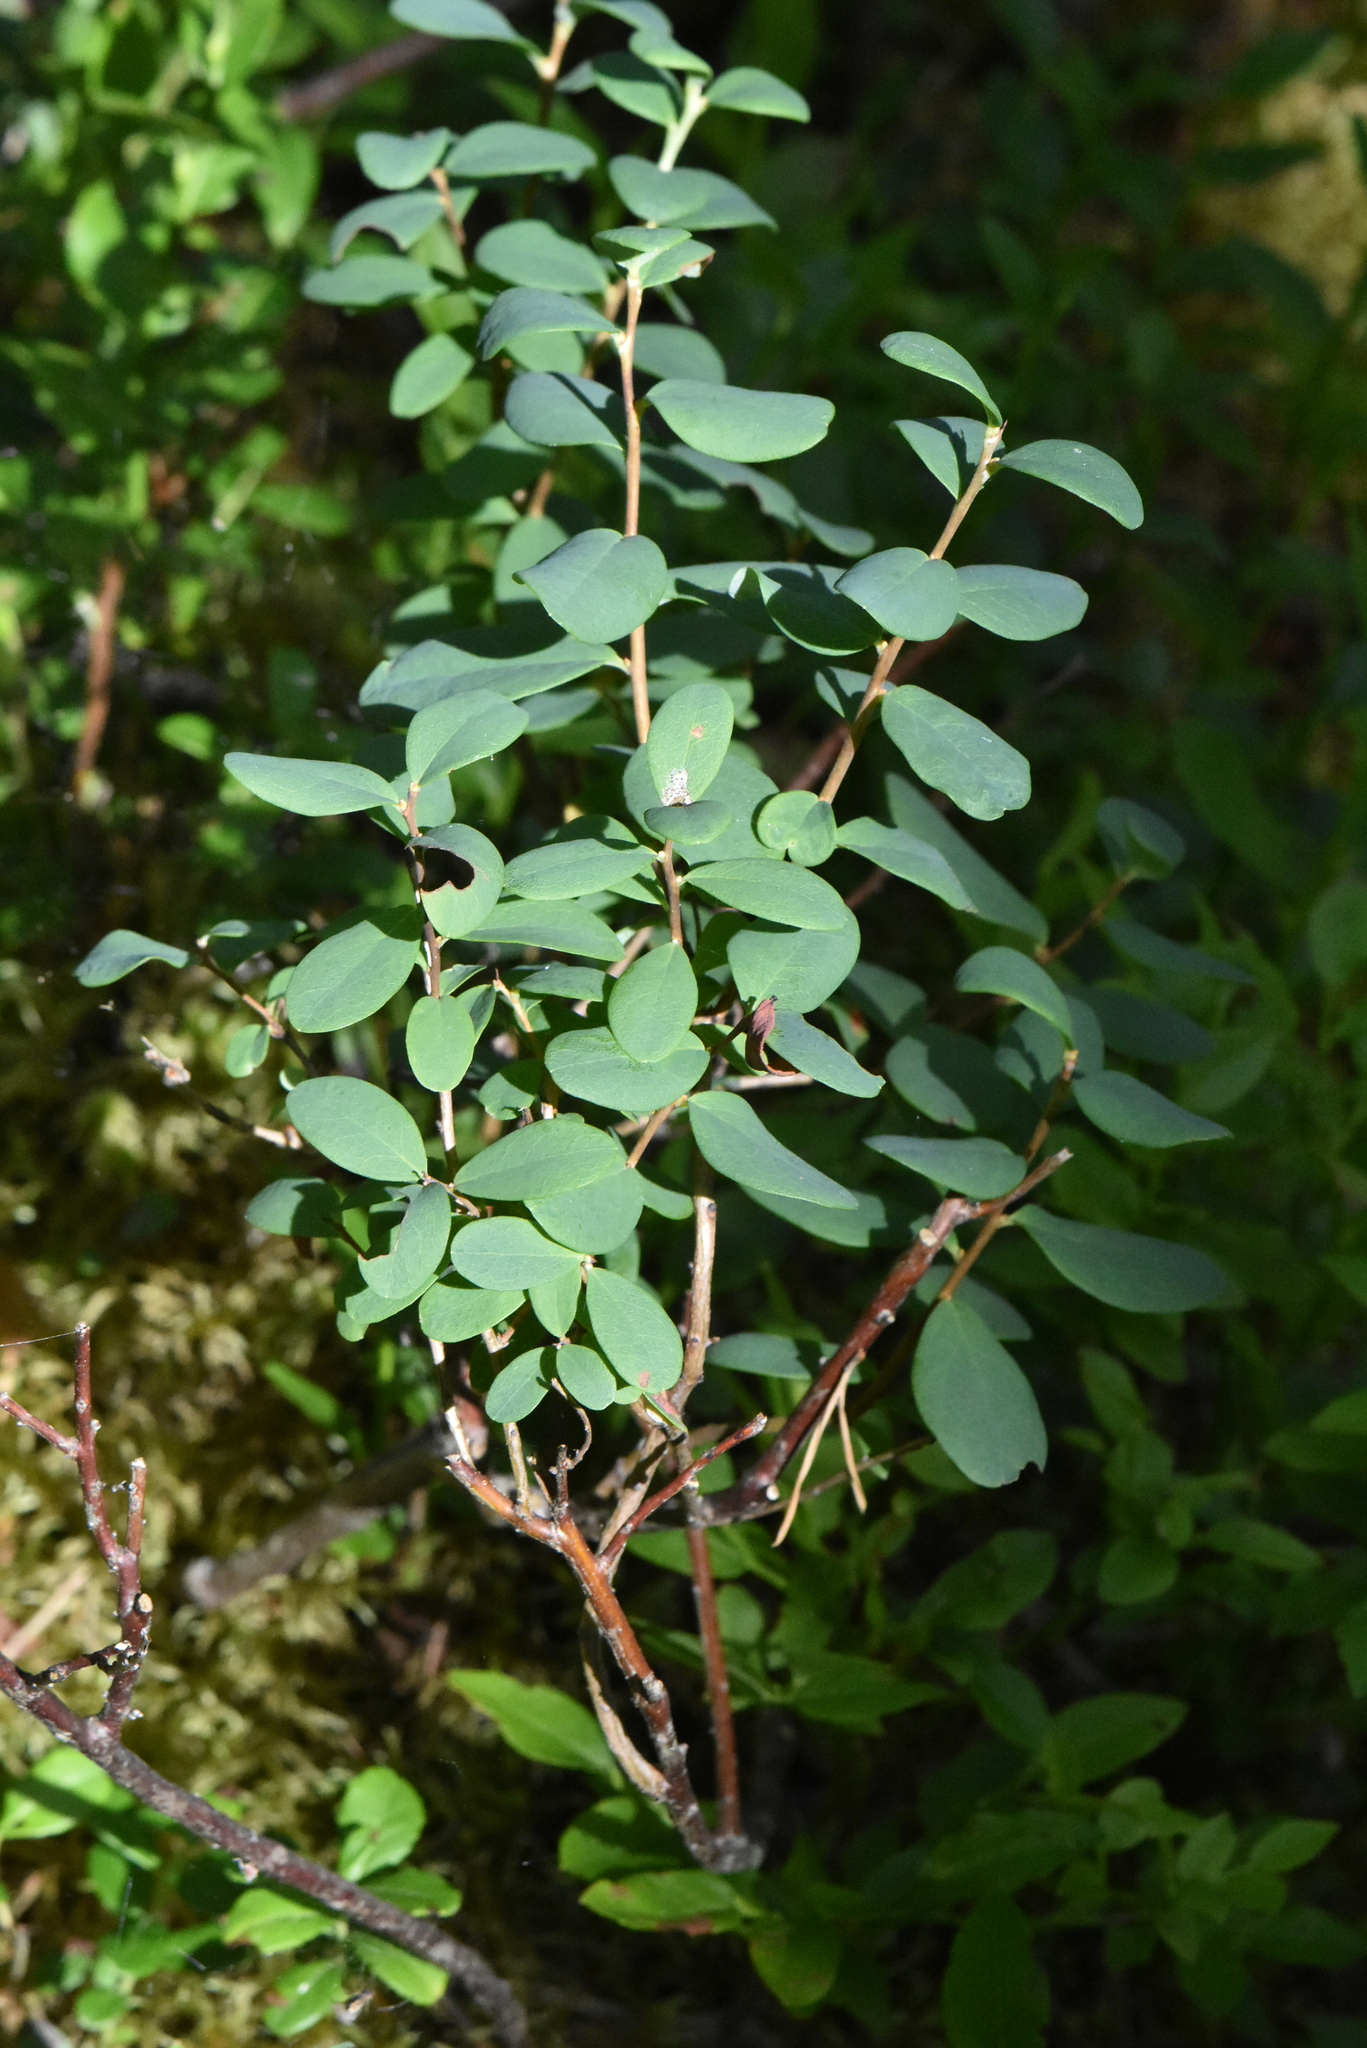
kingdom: Plantae
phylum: Tracheophyta
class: Magnoliopsida
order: Ericales
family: Ericaceae
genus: Vaccinium
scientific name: Vaccinium uliginosum
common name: Bog bilberry
